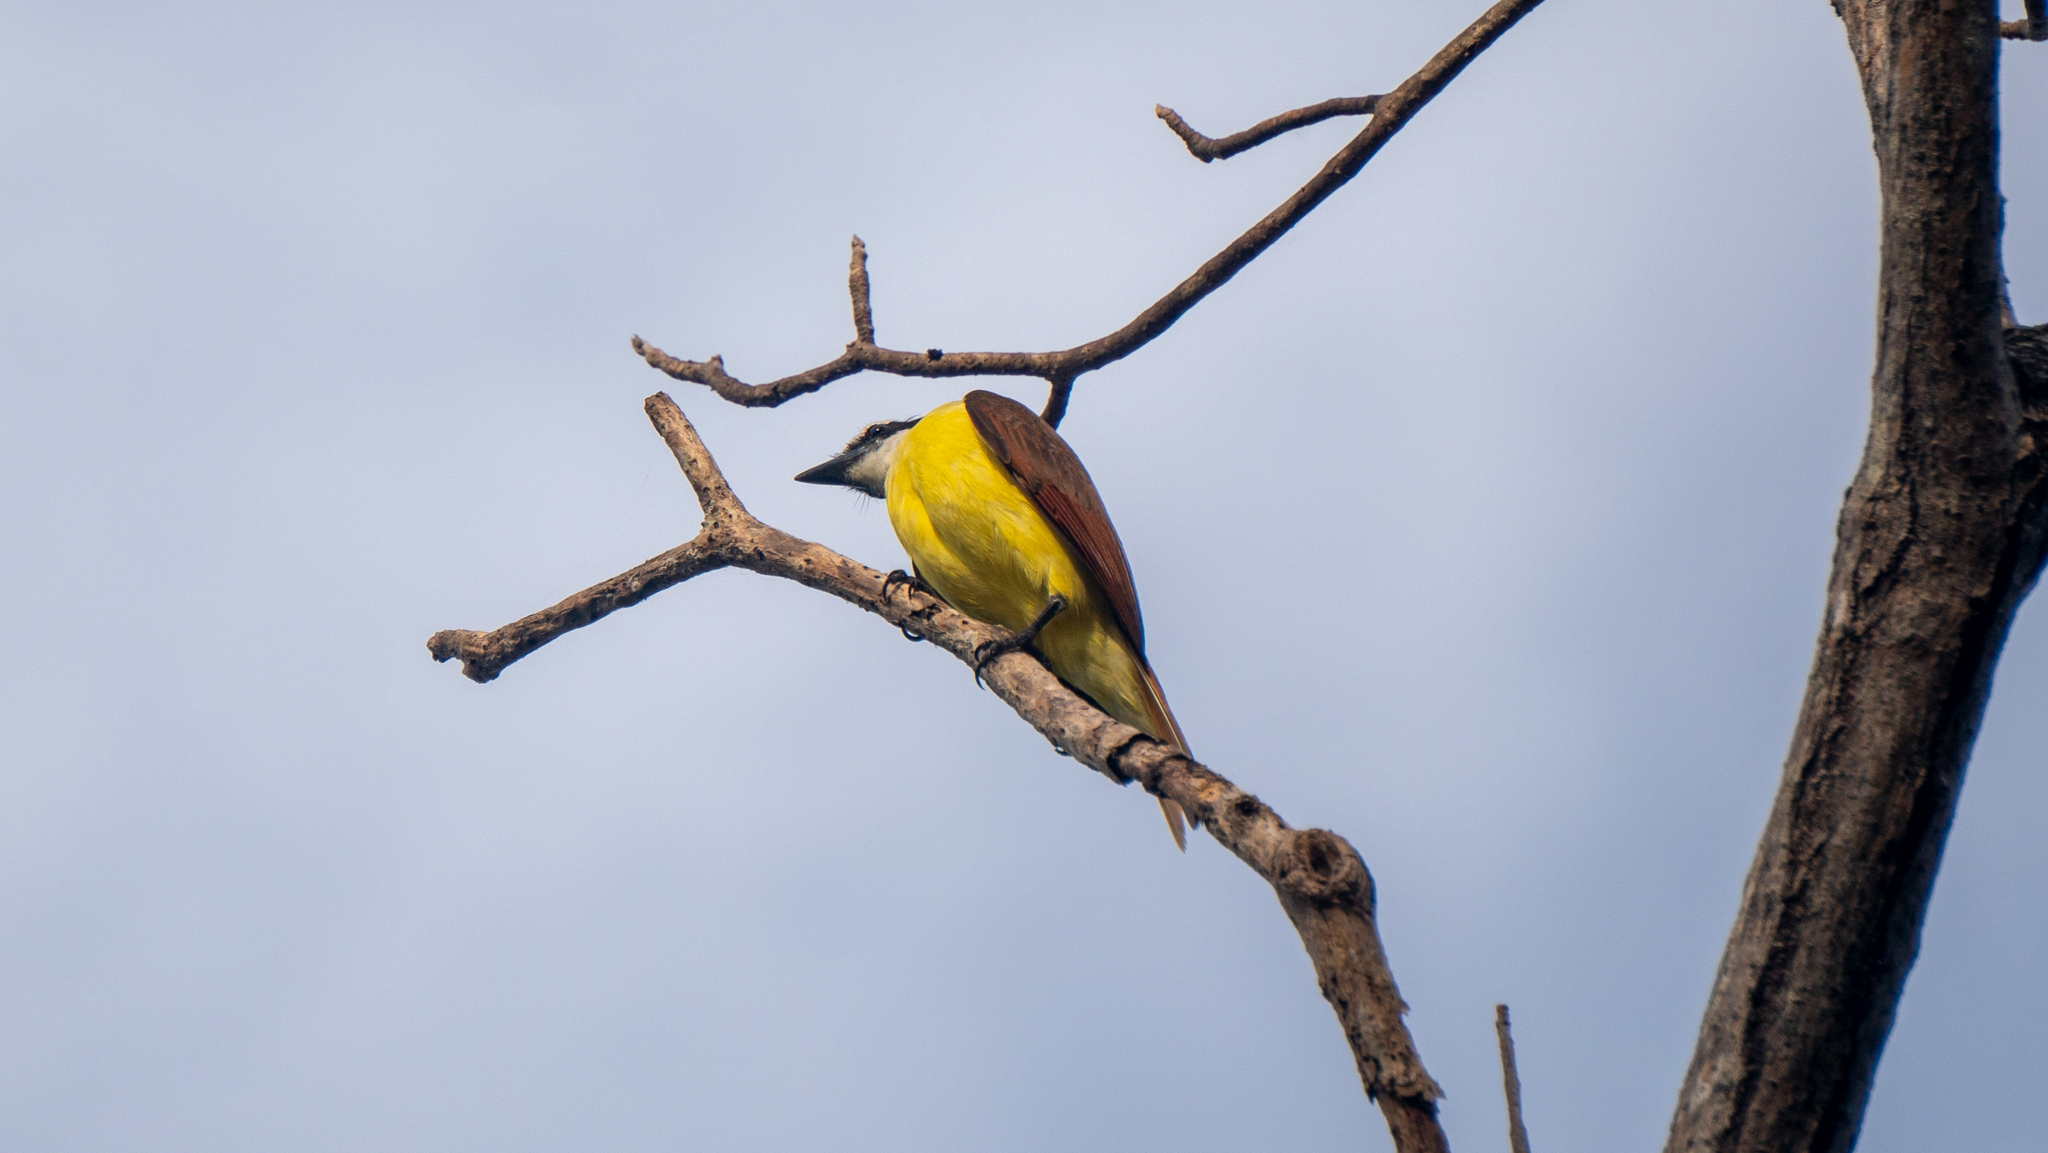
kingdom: Animalia
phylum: Chordata
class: Aves
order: Passeriformes
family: Tyrannidae
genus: Pitangus
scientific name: Pitangus sulphuratus
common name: Great kiskadee
